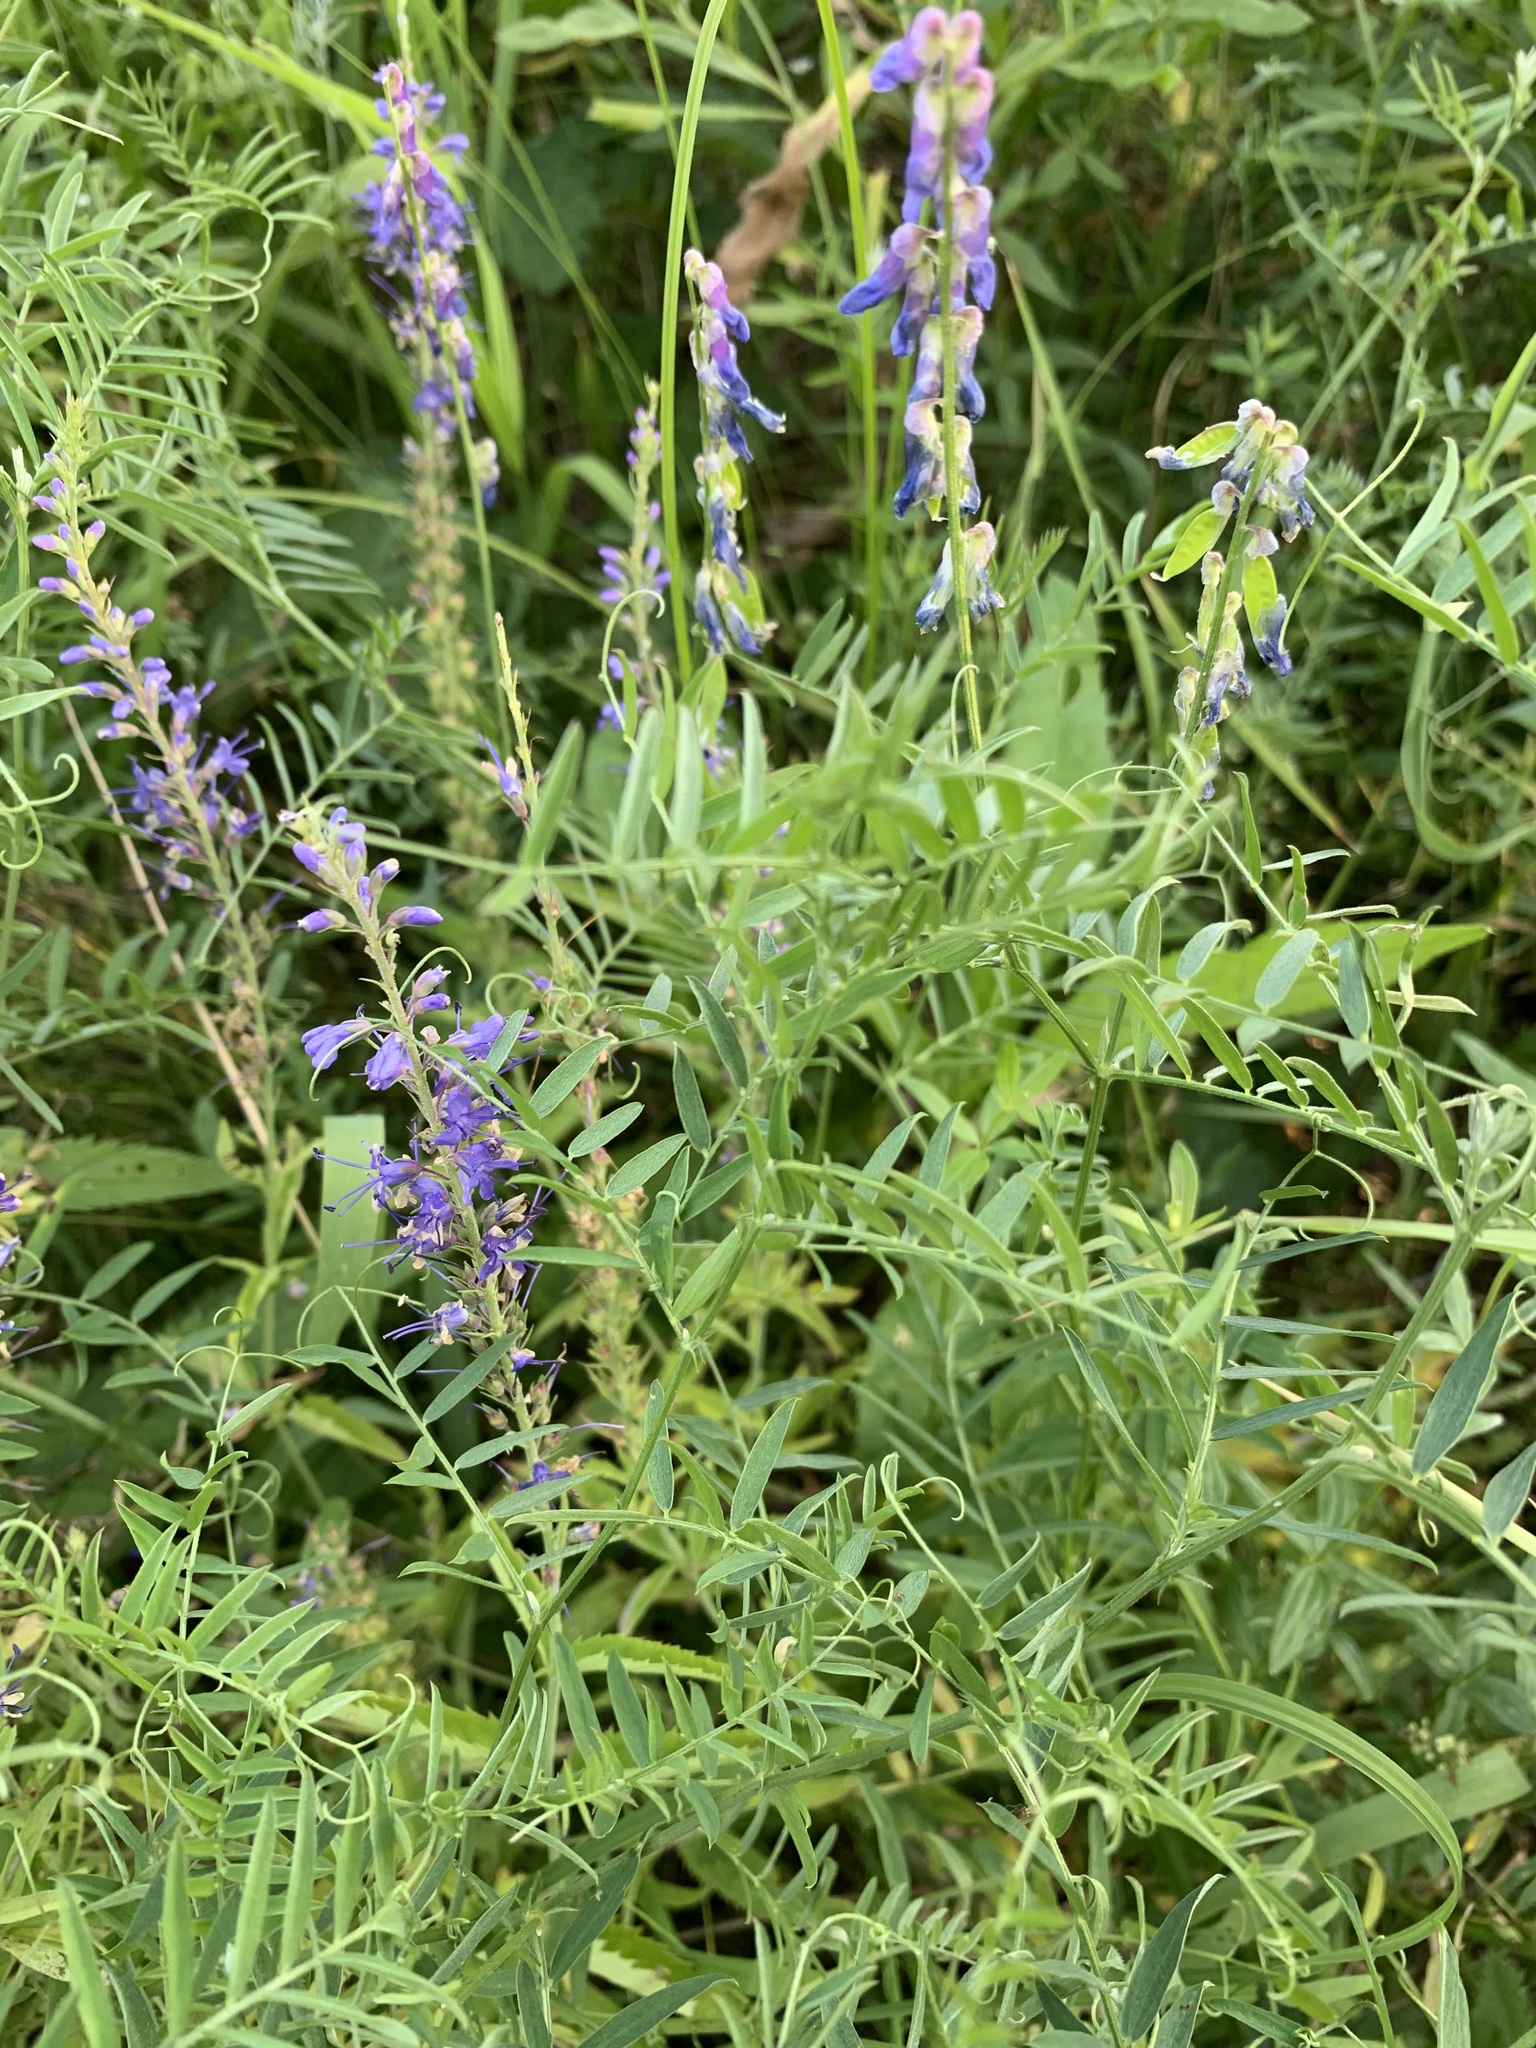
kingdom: Plantae
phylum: Tracheophyta
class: Magnoliopsida
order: Fabales
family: Fabaceae
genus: Vicia
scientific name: Vicia cracca
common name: Bird vetch
